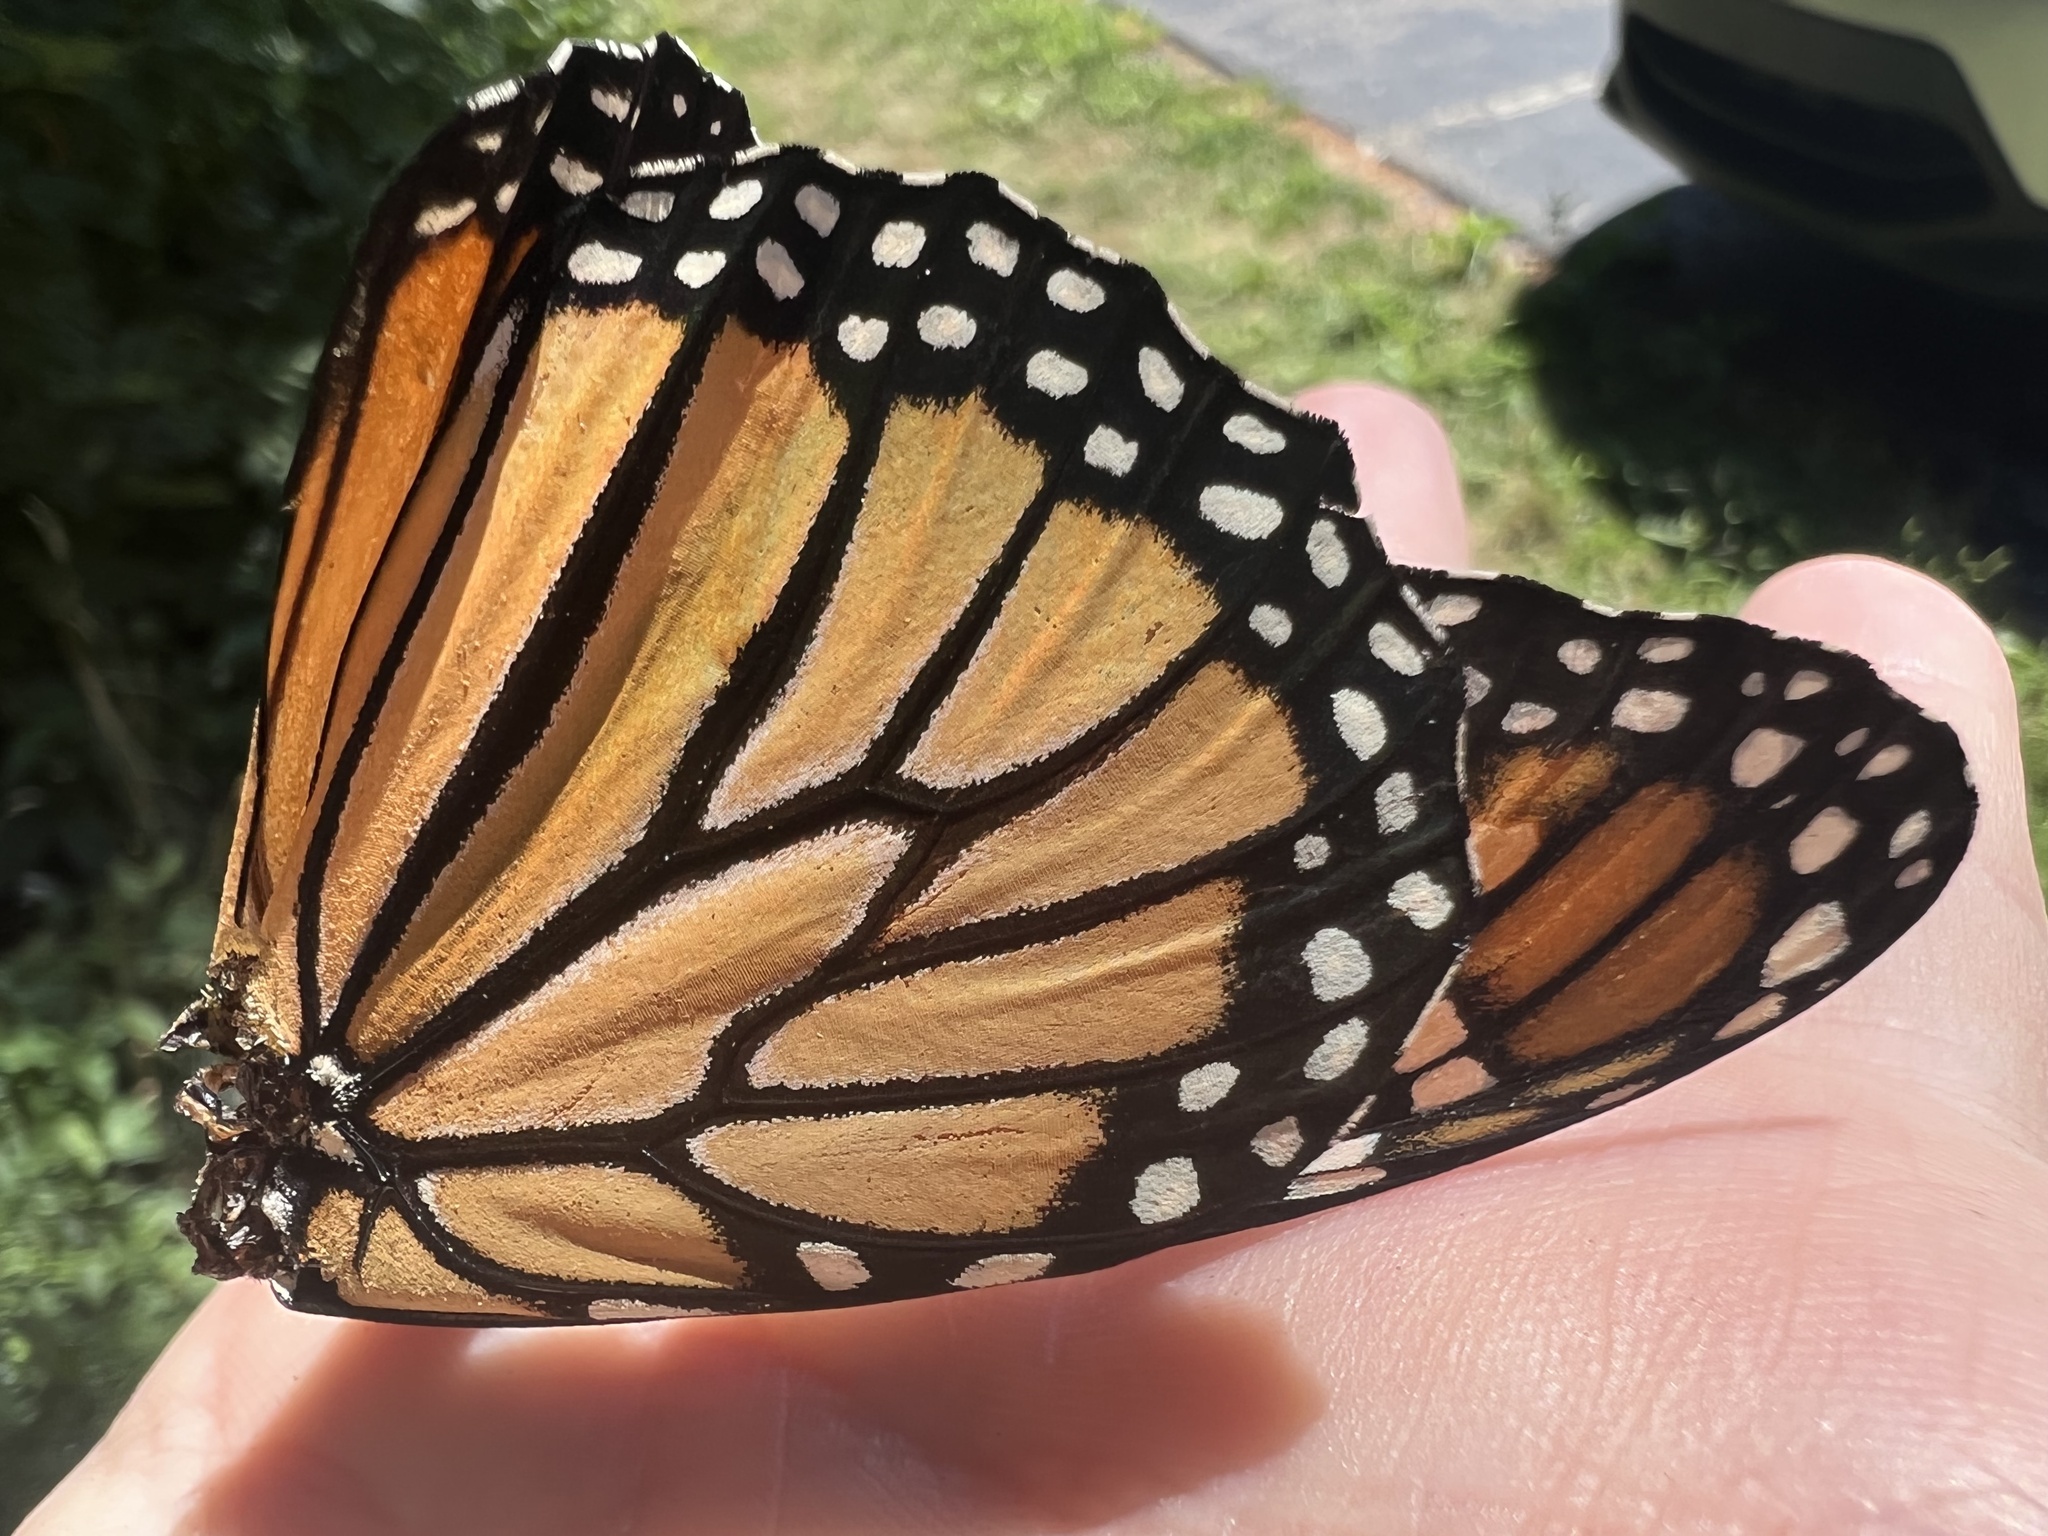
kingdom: Animalia
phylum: Arthropoda
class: Insecta
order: Lepidoptera
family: Nymphalidae
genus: Danaus
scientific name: Danaus plexippus
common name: Monarch
